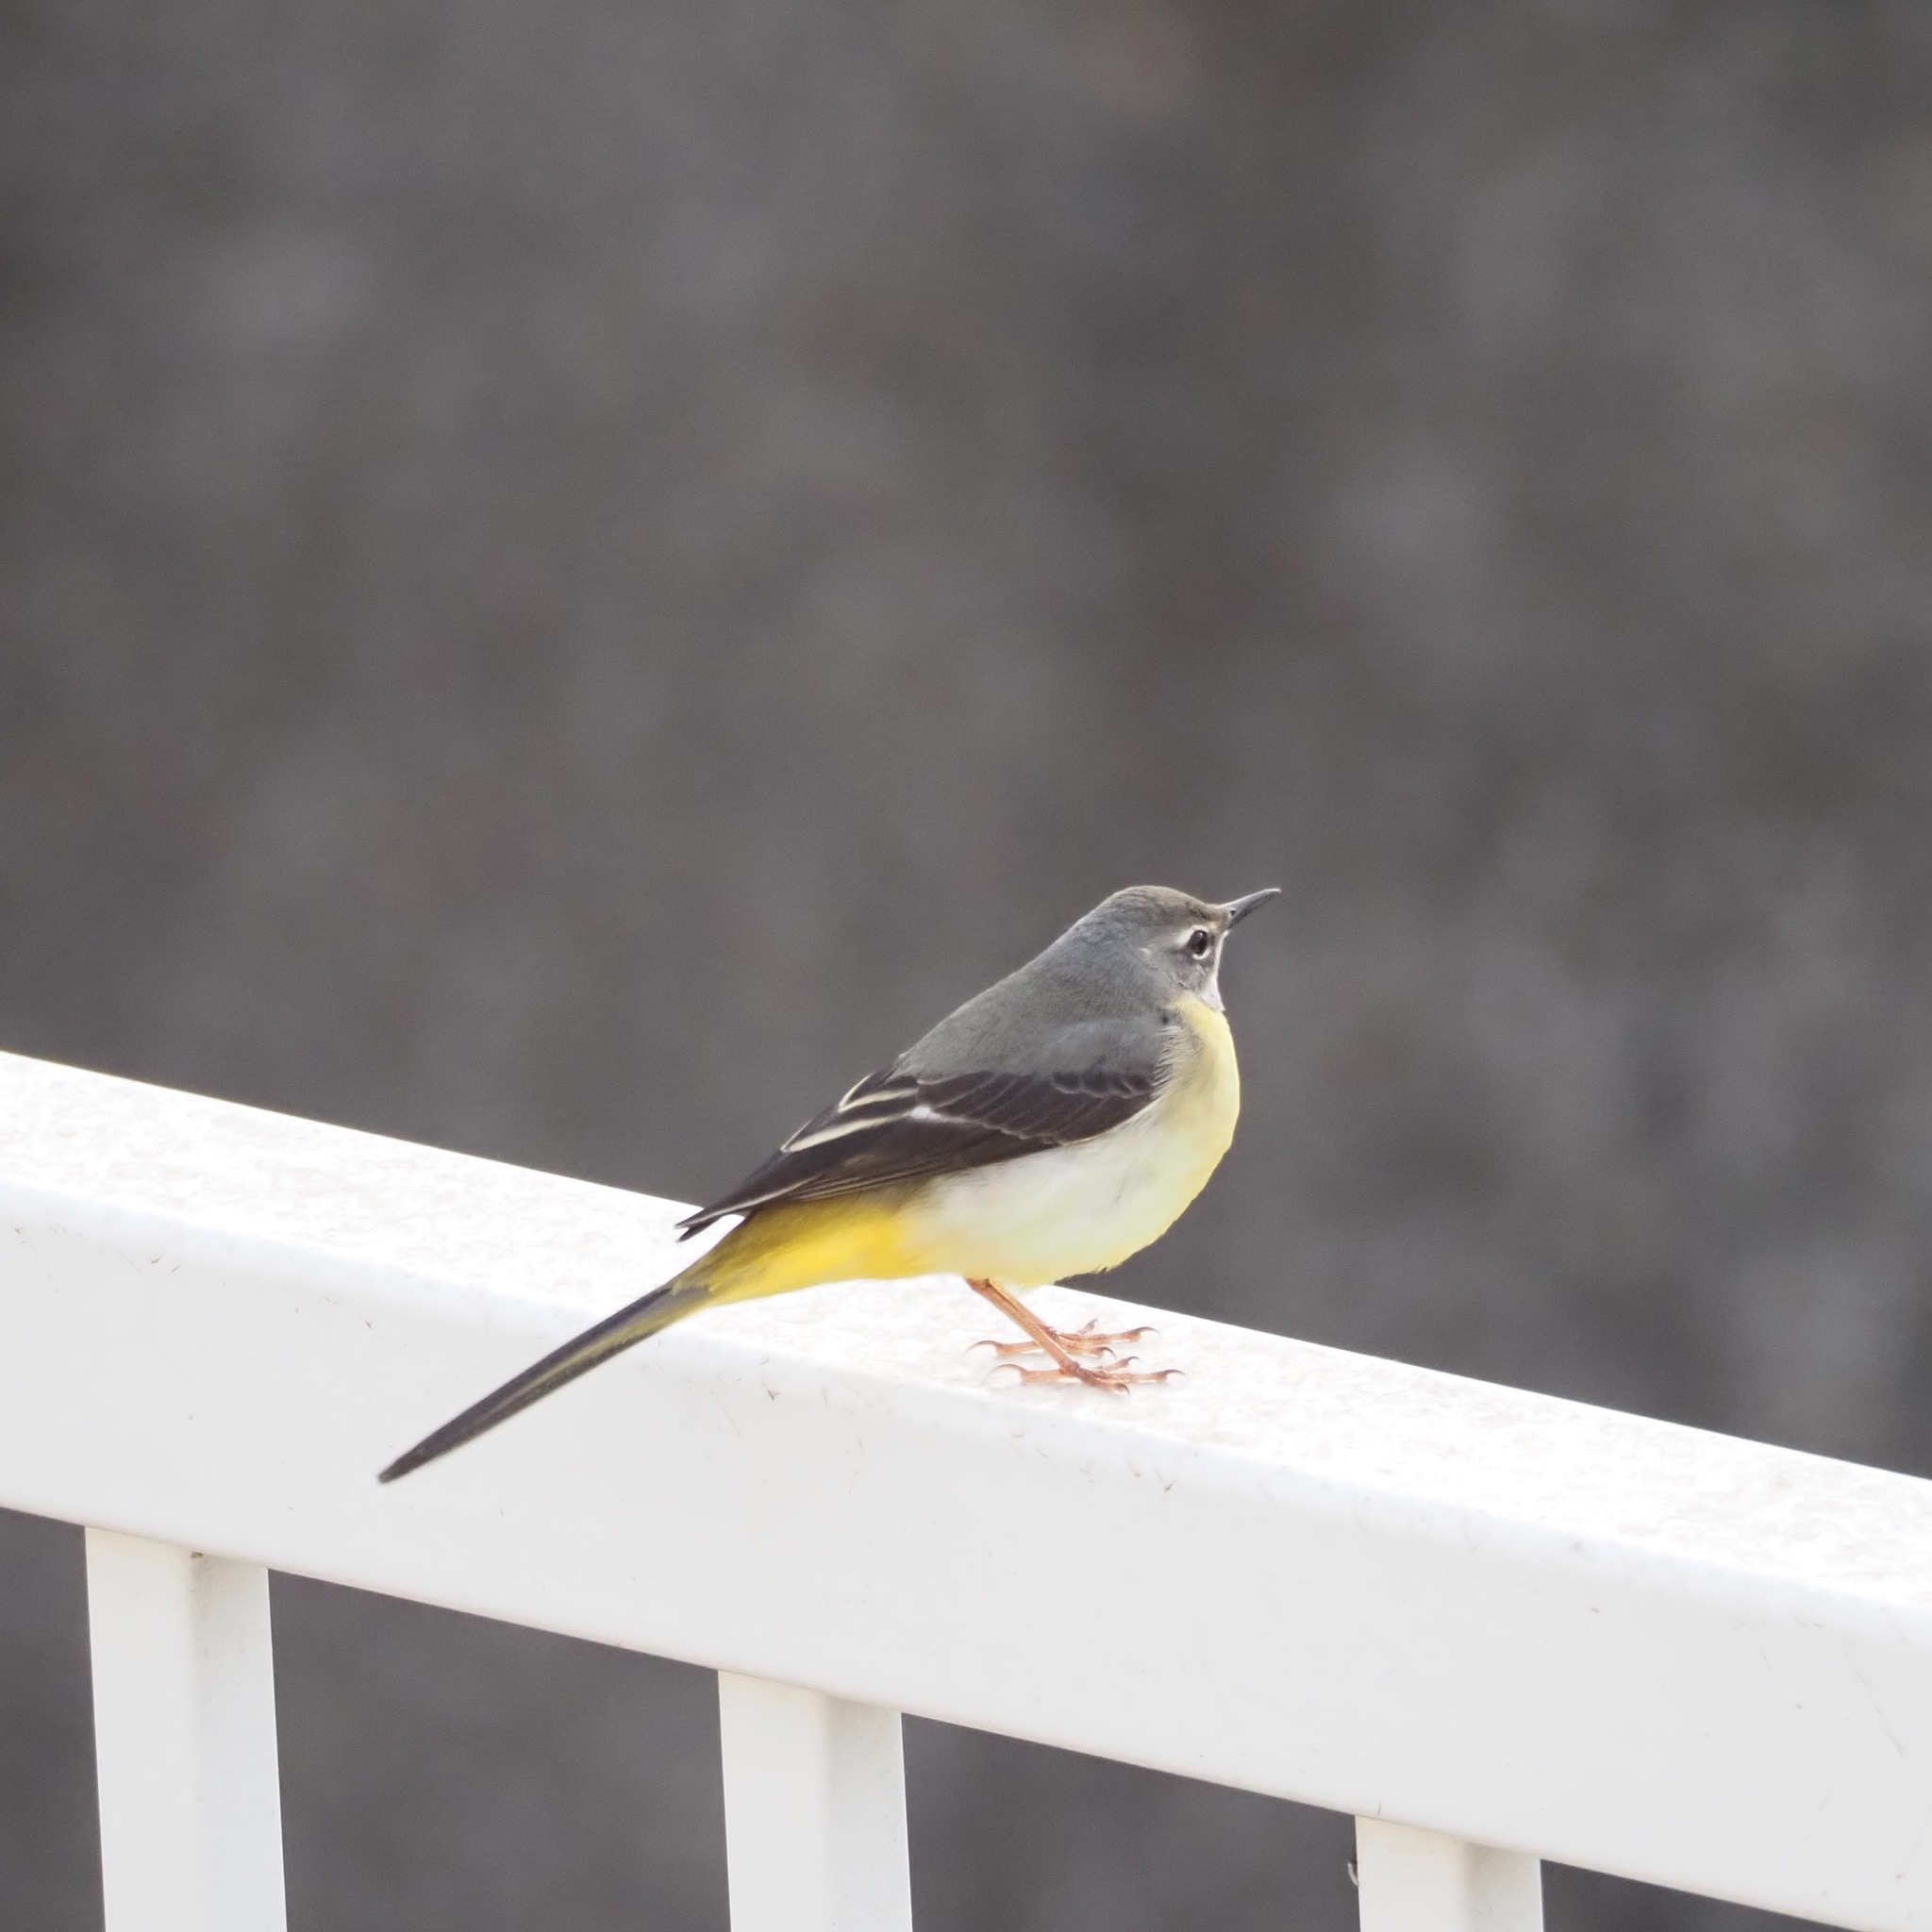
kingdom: Animalia
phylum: Chordata
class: Aves
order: Passeriformes
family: Motacillidae
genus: Motacilla
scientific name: Motacilla cinerea
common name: Grey wagtail
